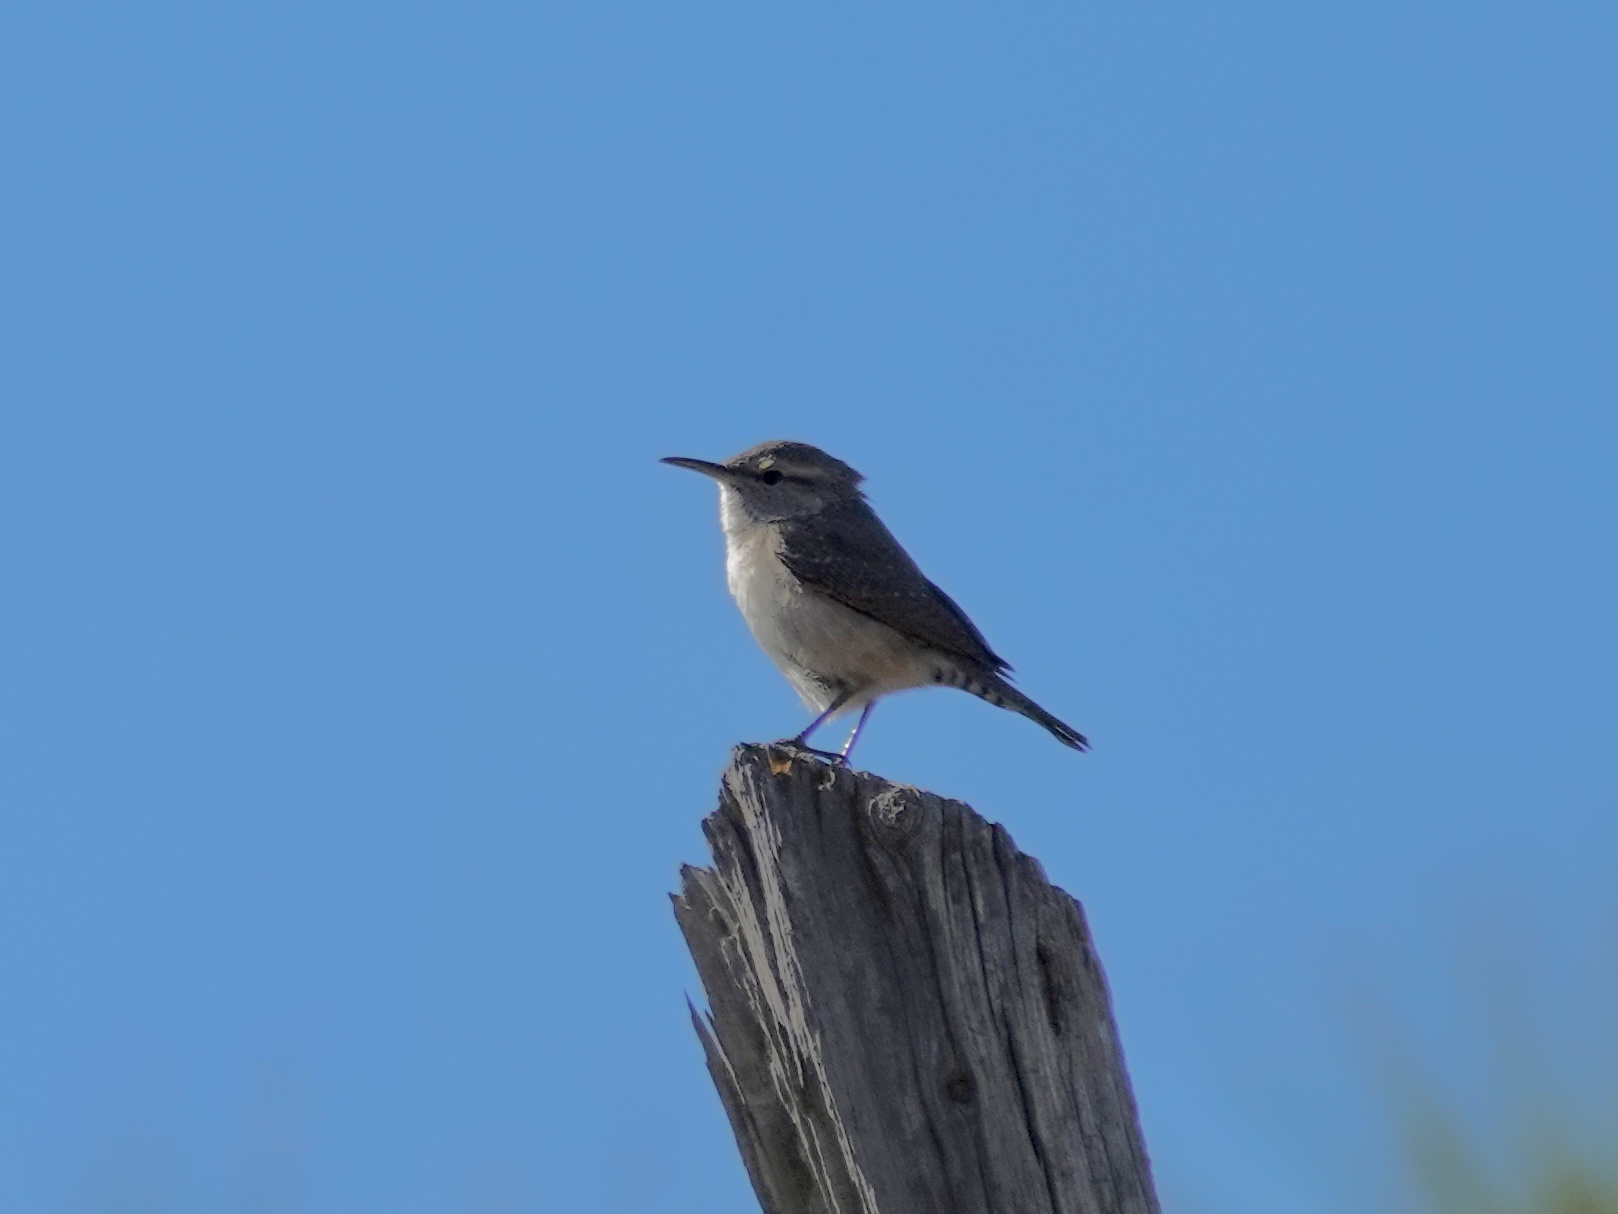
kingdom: Animalia
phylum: Chordata
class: Aves
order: Passeriformes
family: Troglodytidae
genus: Salpinctes
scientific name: Salpinctes obsoletus
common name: Rock wren
